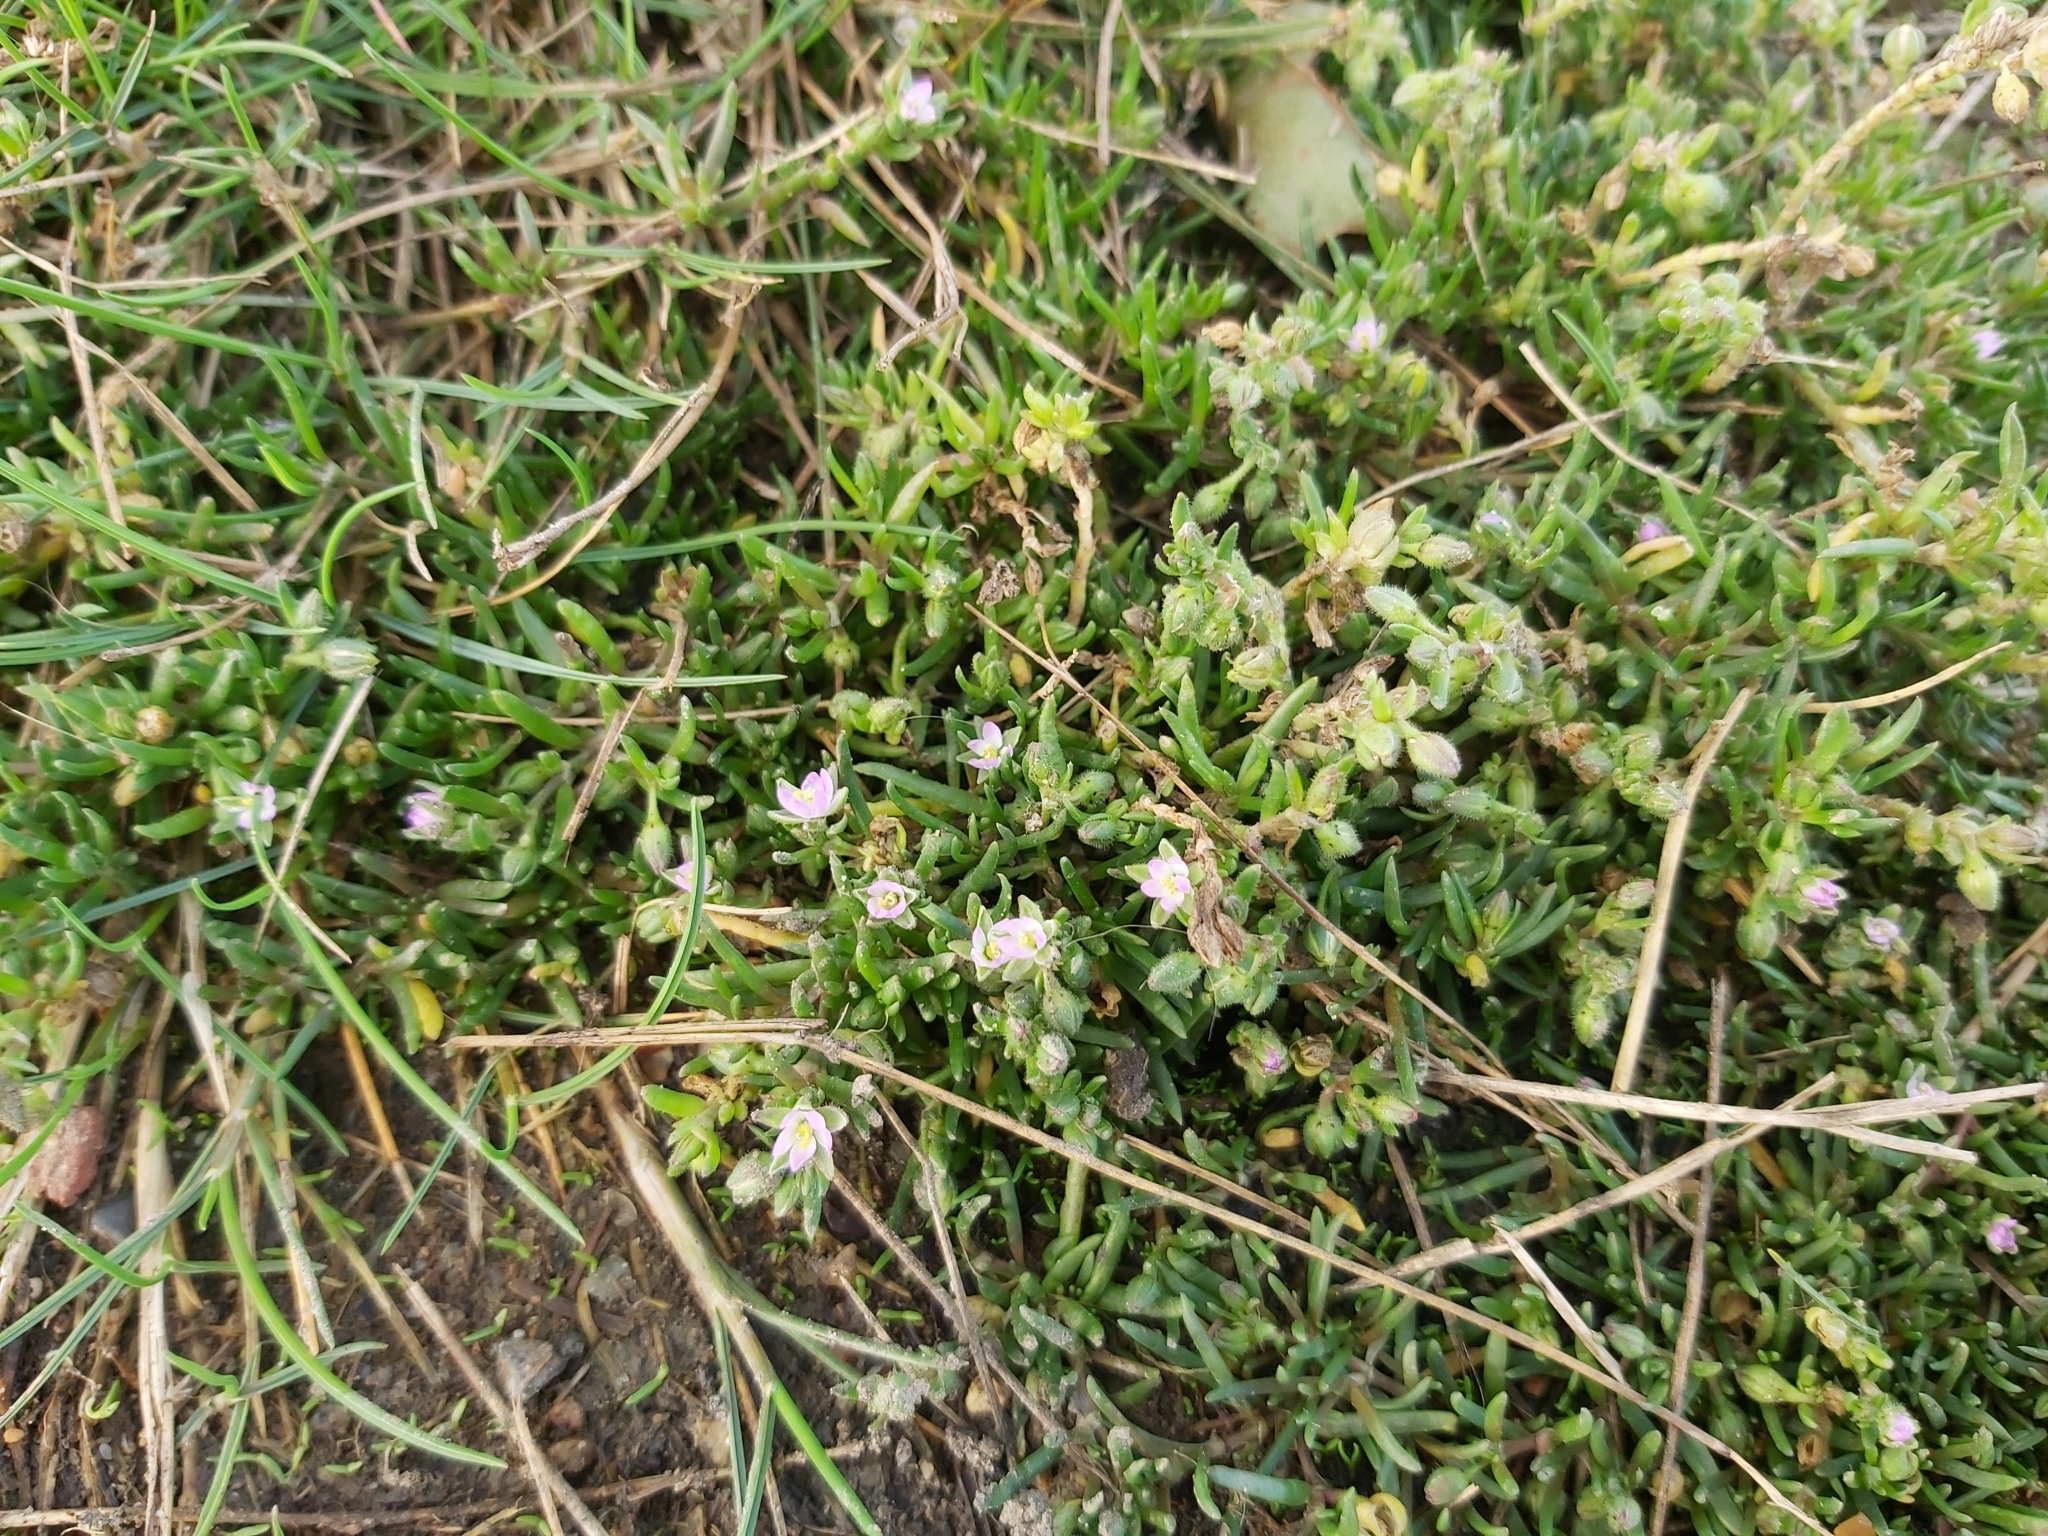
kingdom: Plantae
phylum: Tracheophyta
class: Magnoliopsida
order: Caryophyllales
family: Caryophyllaceae
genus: Spergularia
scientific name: Spergularia marina
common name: Lesser sea-spurrey
